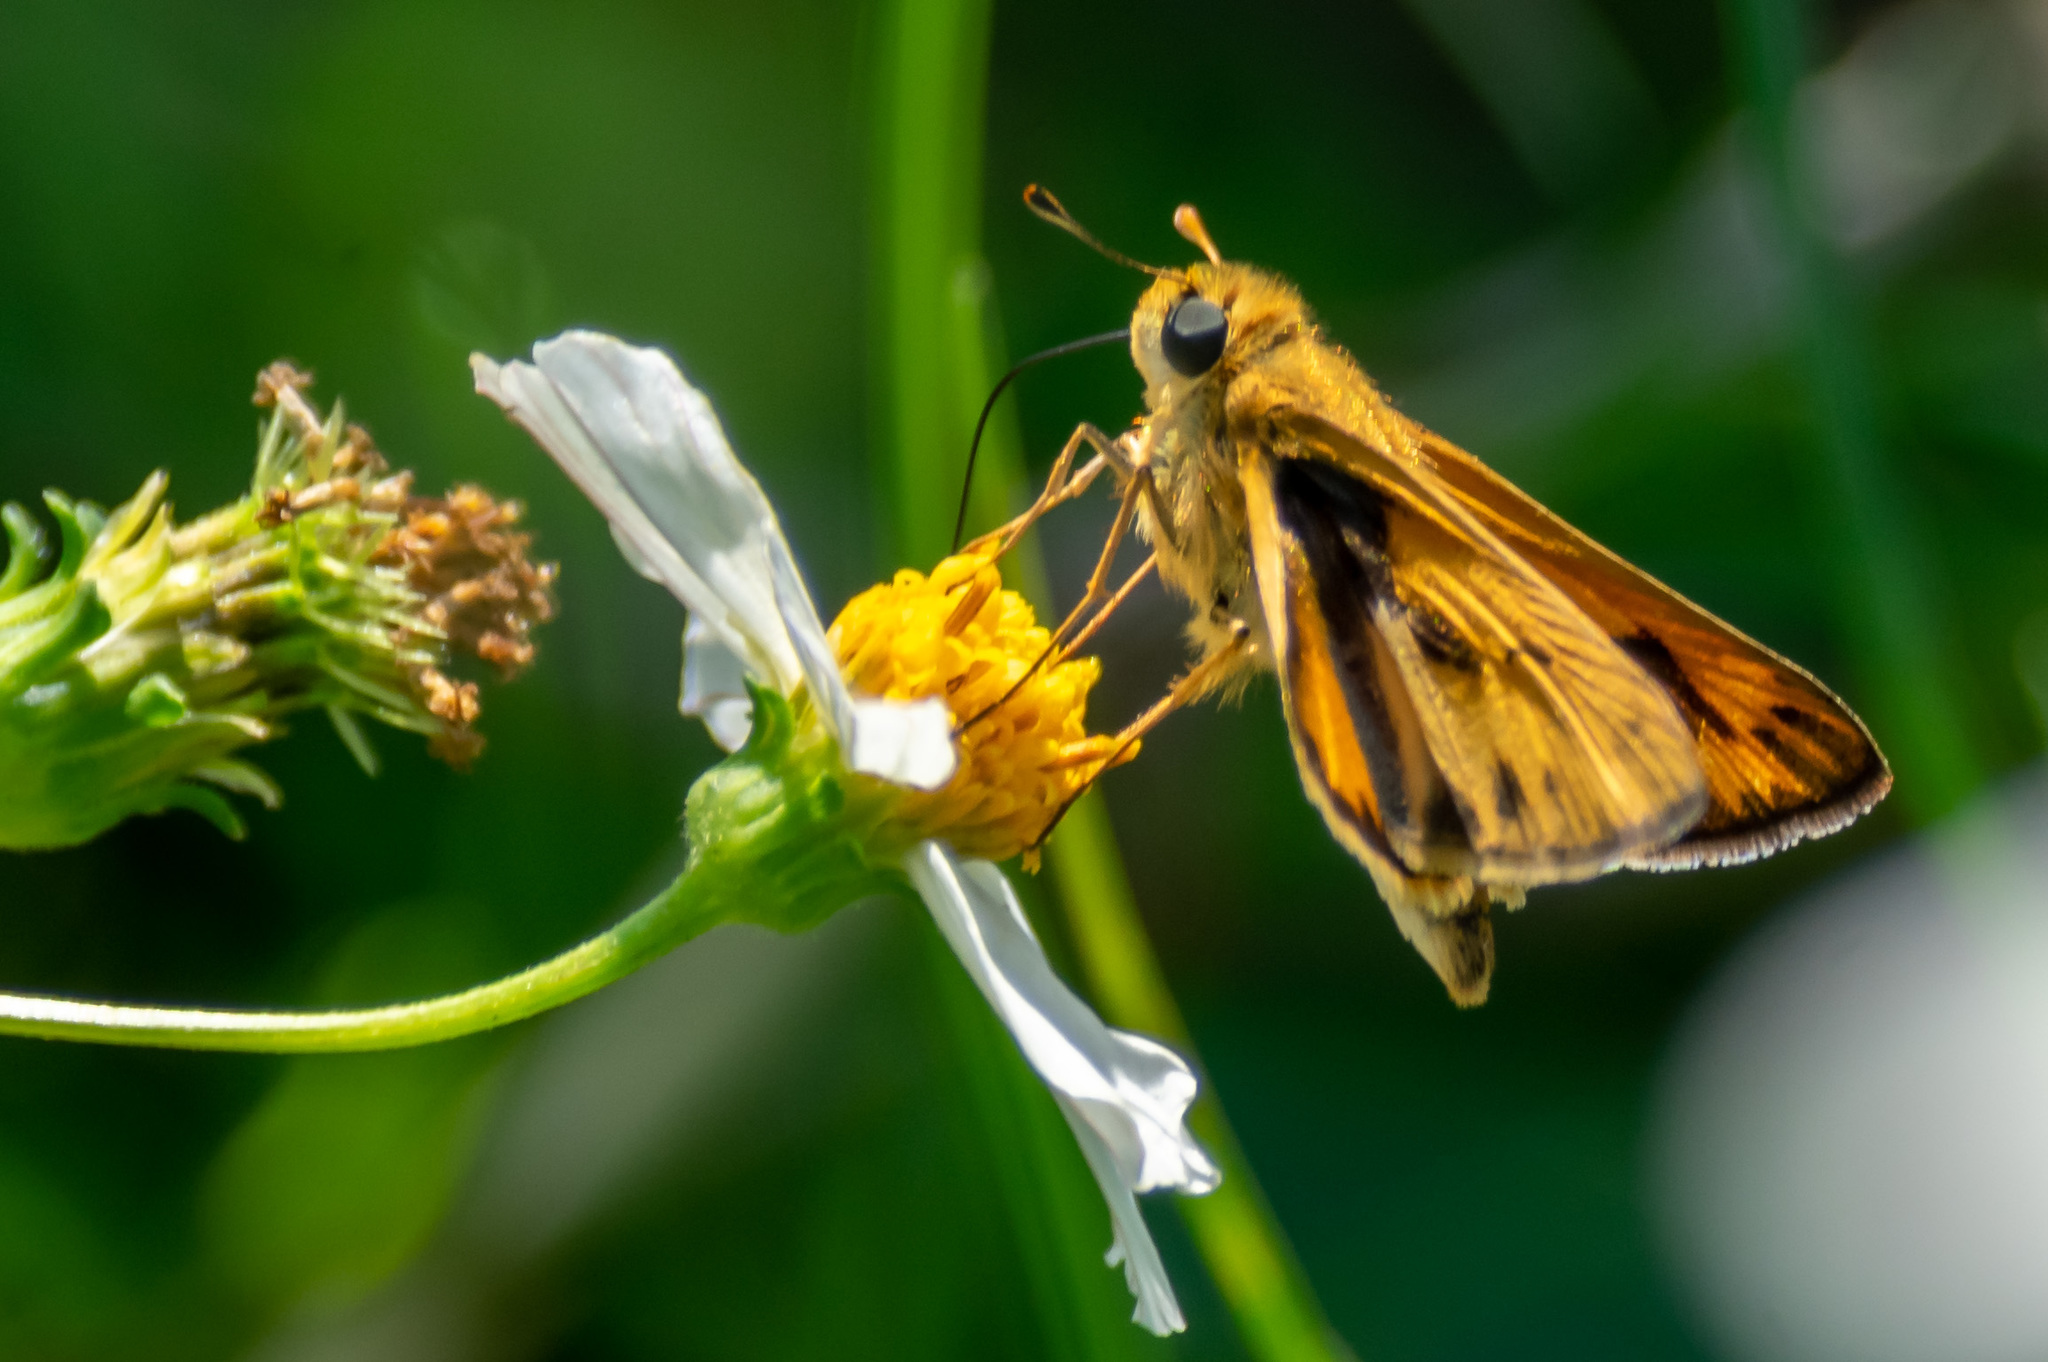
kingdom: Animalia
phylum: Arthropoda
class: Insecta
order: Lepidoptera
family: Hesperiidae
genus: Hylephila
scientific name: Hylephila phyleus
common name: Fiery skipper
